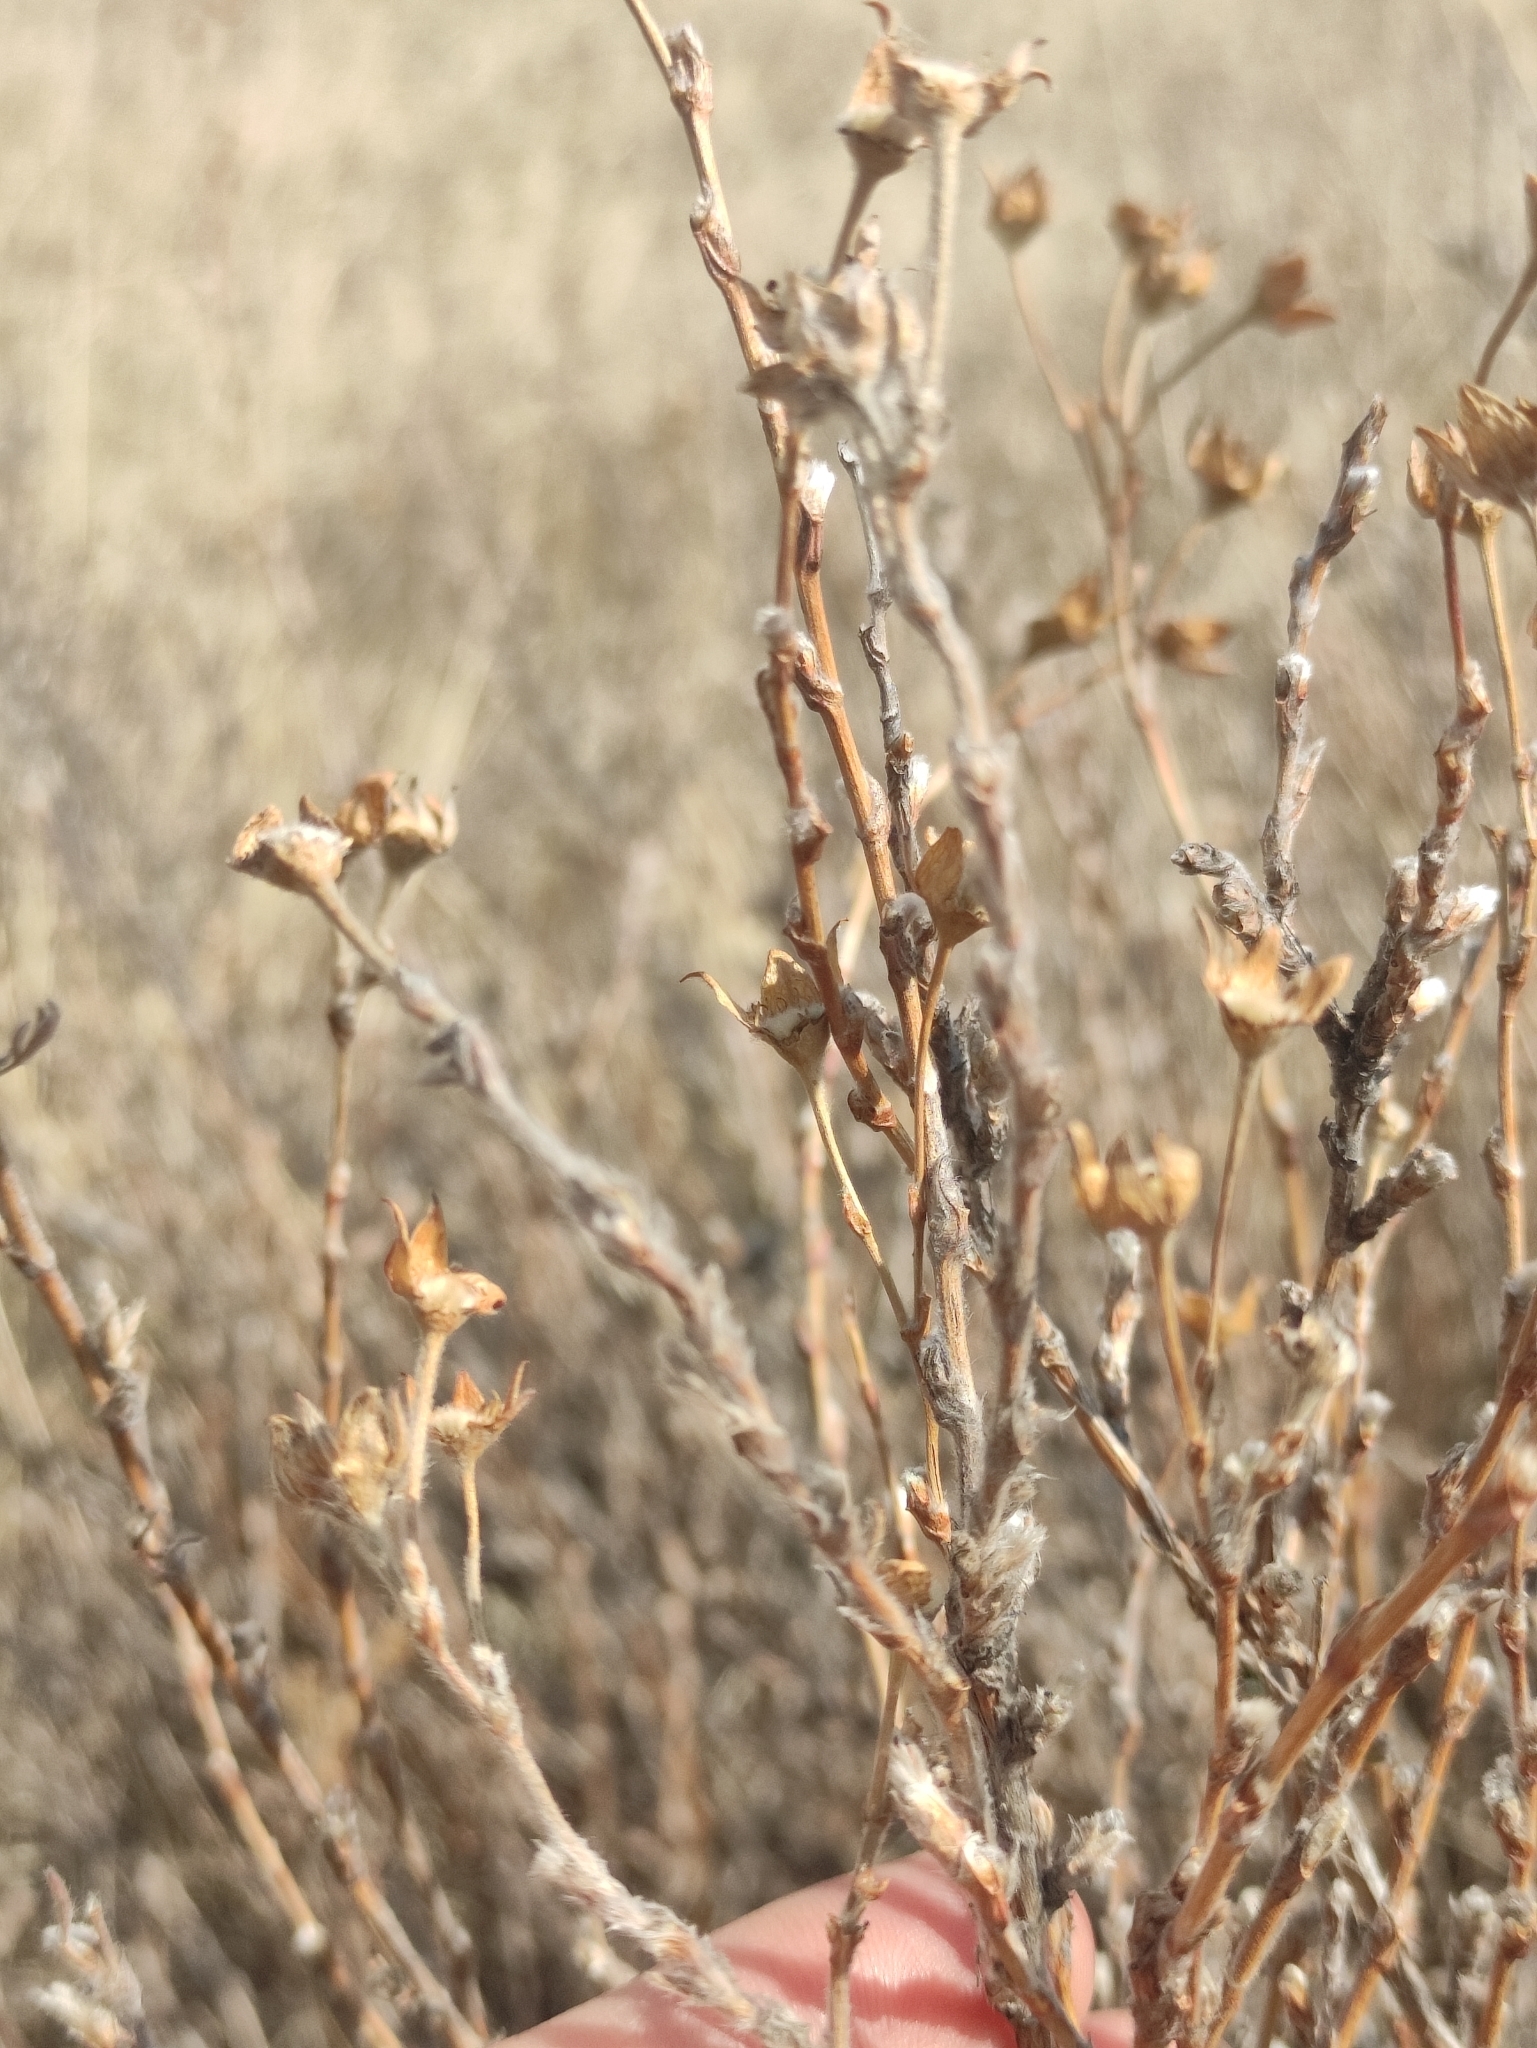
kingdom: Plantae
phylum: Tracheophyta
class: Magnoliopsida
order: Rosales
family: Rosaceae
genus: Dasiphora
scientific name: Dasiphora fruticosa
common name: Shrubby cinquefoil
